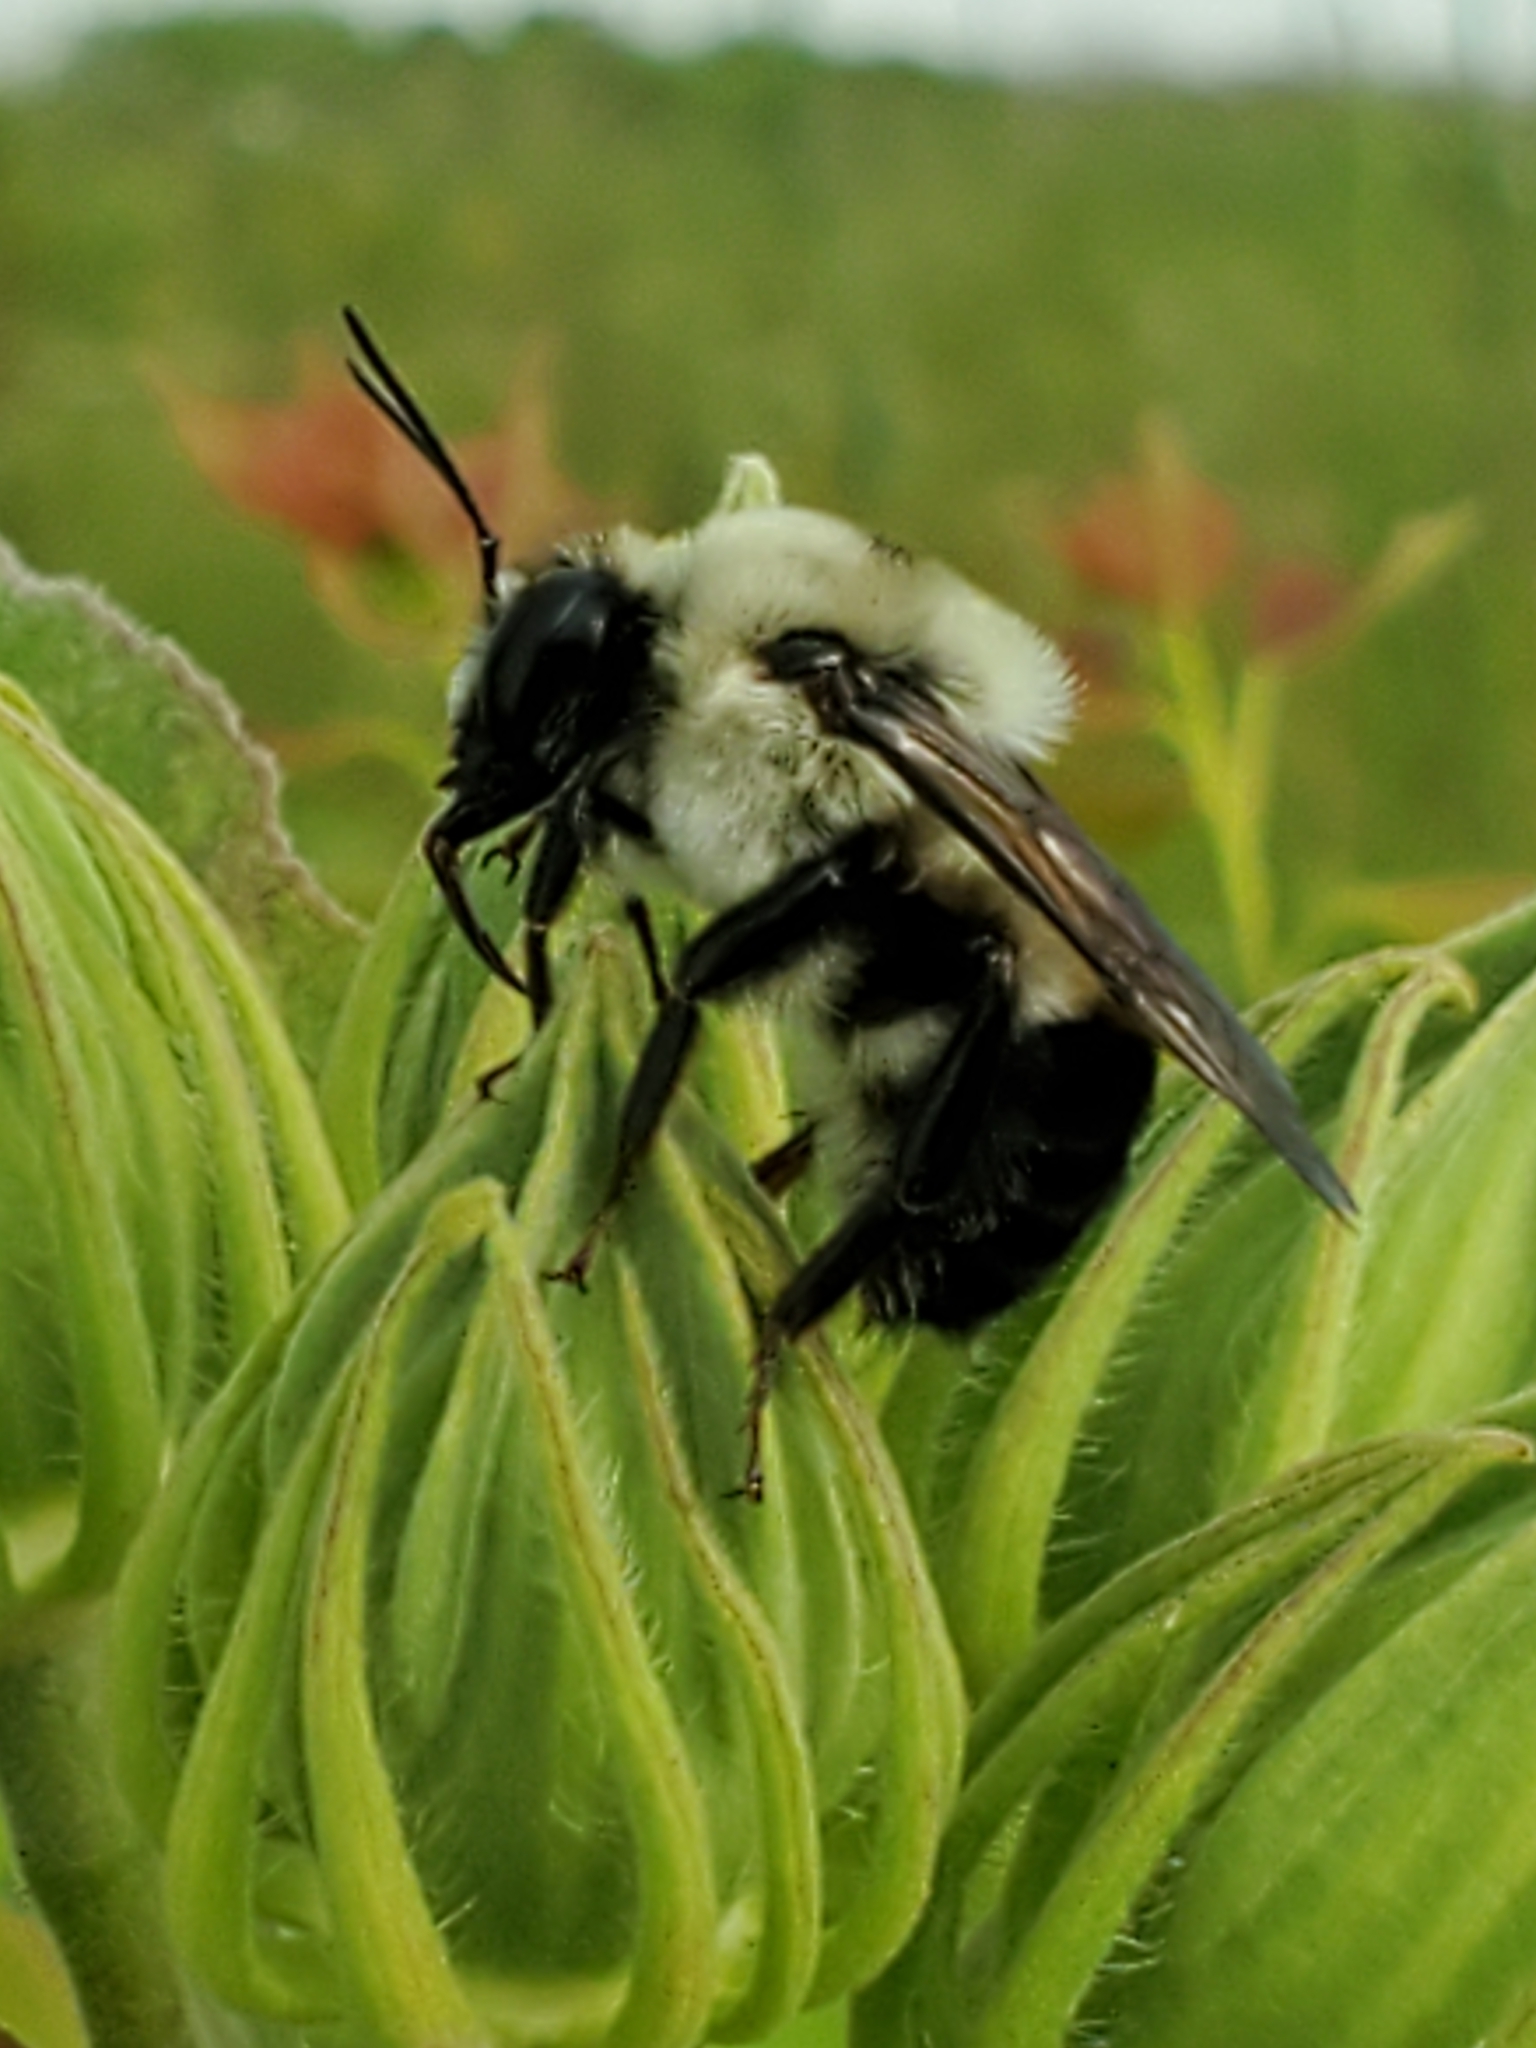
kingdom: Animalia
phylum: Arthropoda
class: Insecta
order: Hymenoptera
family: Apidae
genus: Bombus
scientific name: Bombus griseocollis
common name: Brown-belted bumble bee
